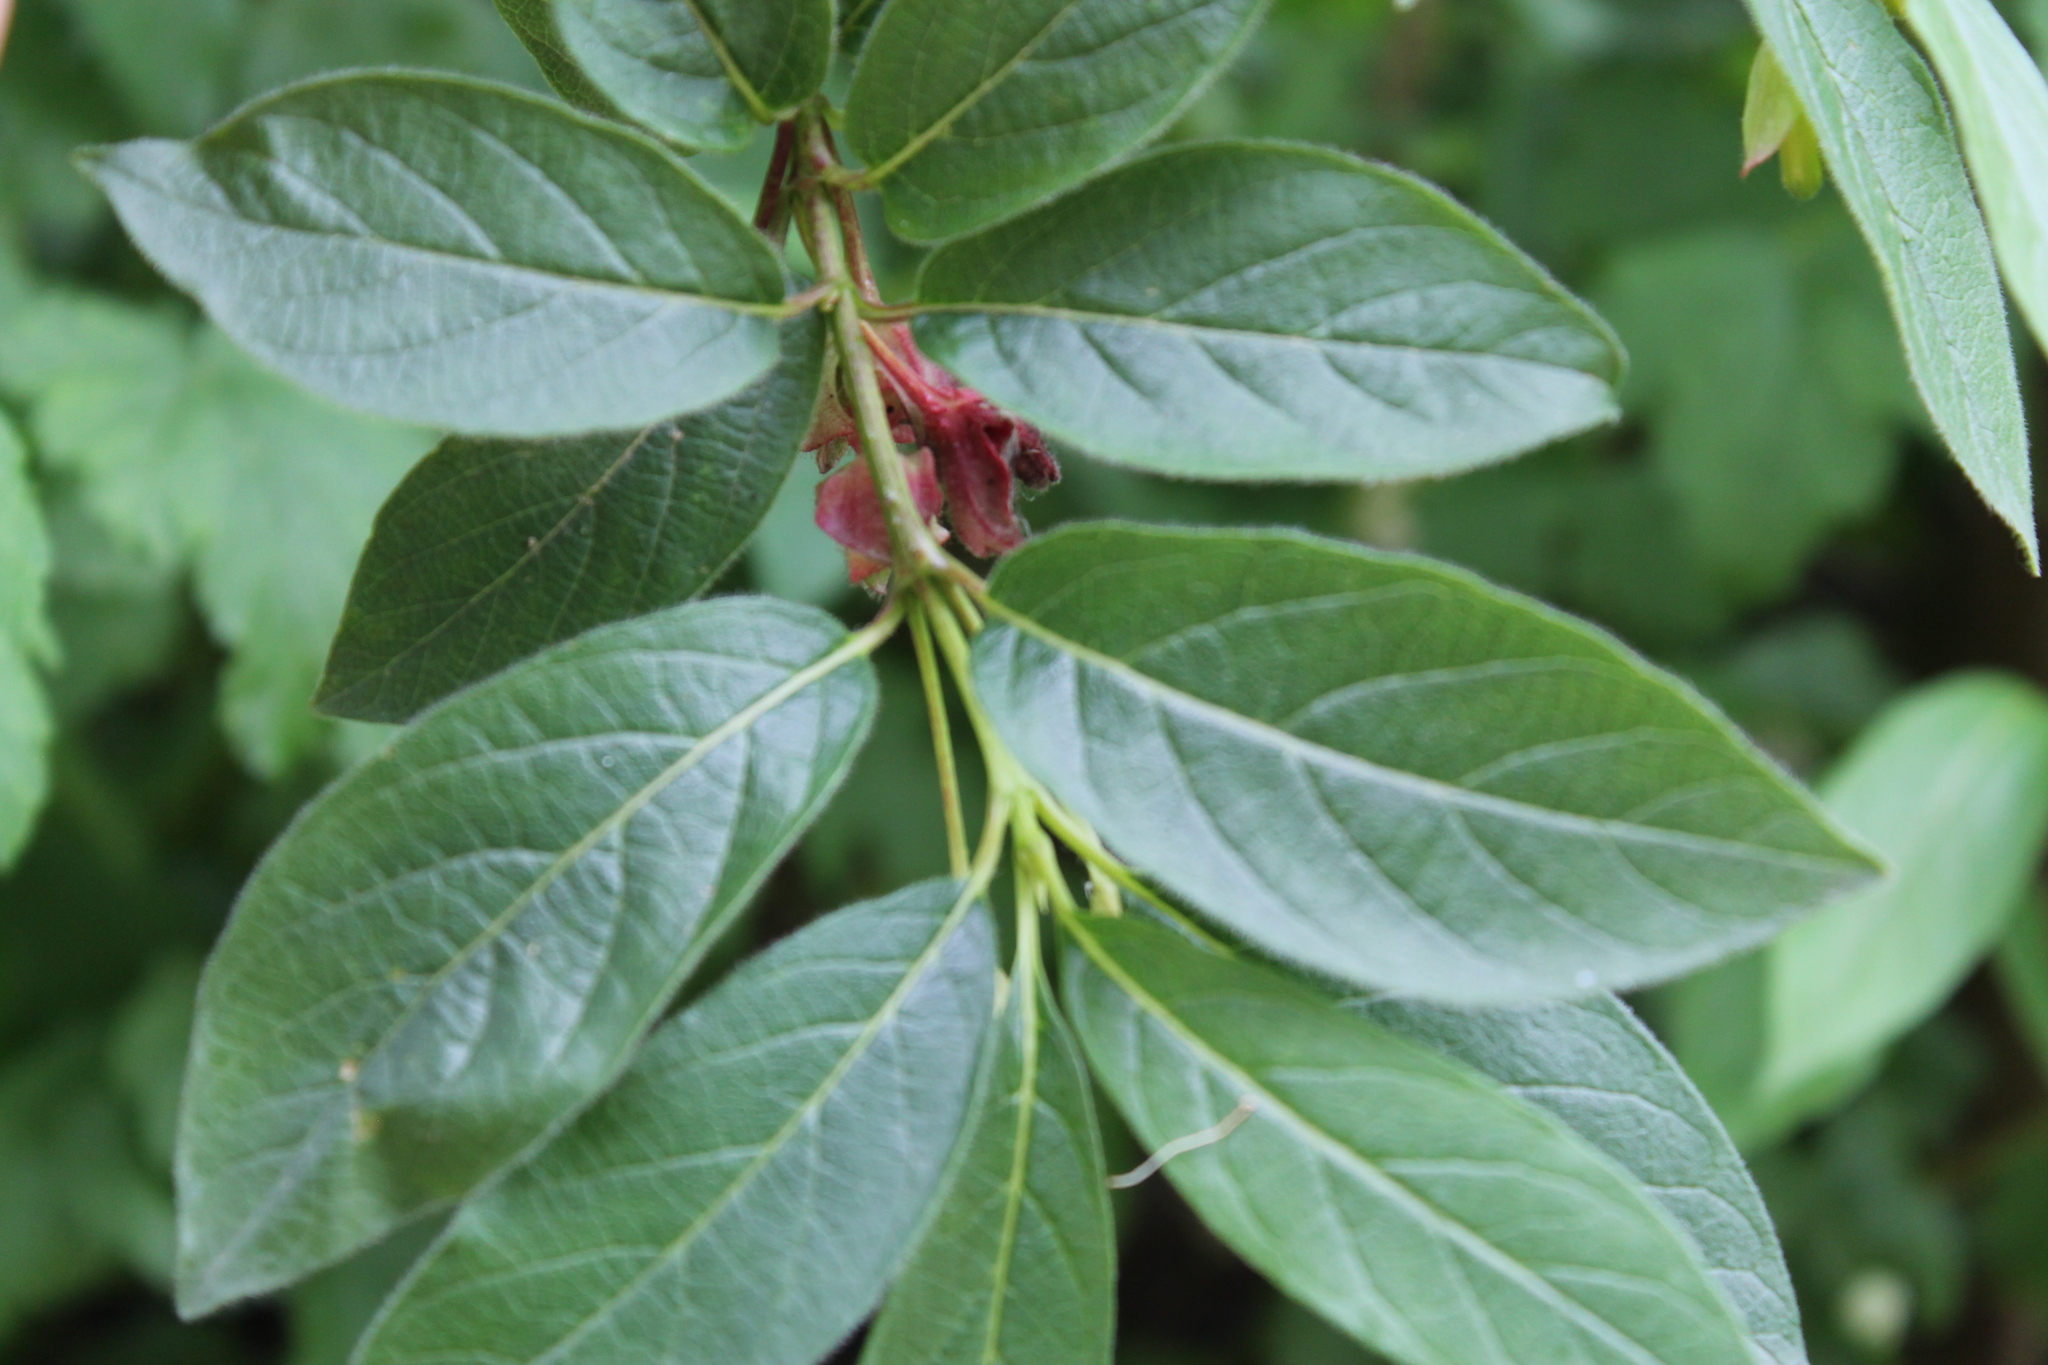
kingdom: Plantae
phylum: Tracheophyta
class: Magnoliopsida
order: Dipsacales
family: Caprifoliaceae
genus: Lonicera
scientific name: Lonicera involucrata
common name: Californian honeysuckle
